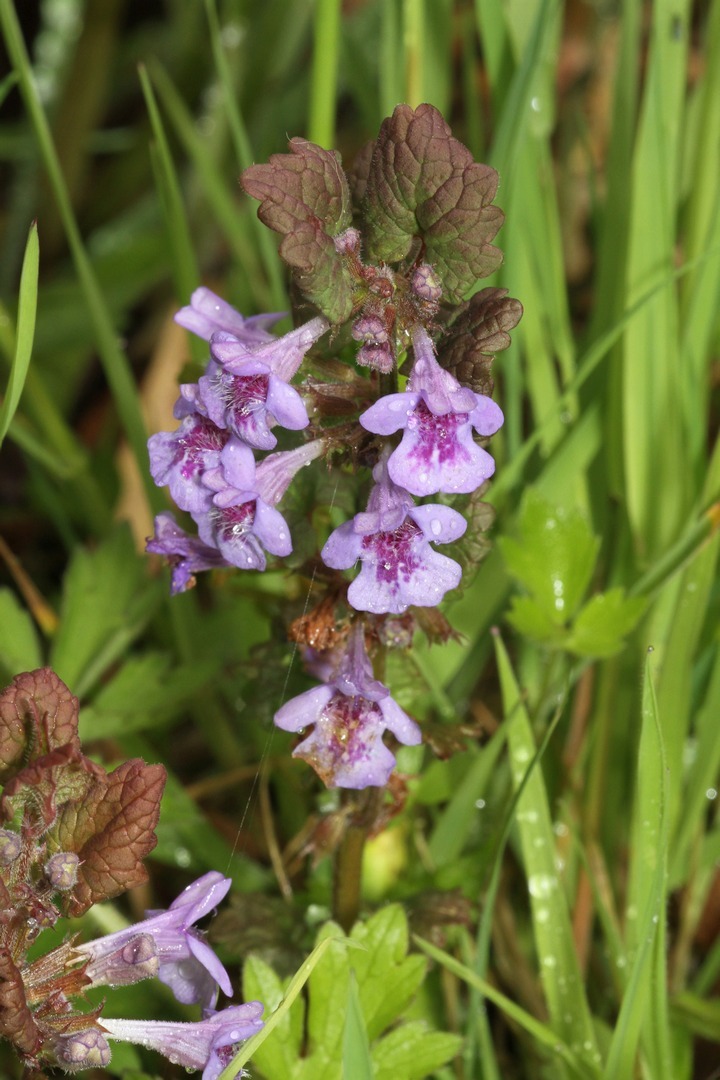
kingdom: Plantae
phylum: Tracheophyta
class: Magnoliopsida
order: Lamiales
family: Lamiaceae
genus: Glechoma
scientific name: Glechoma hederacea
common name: Ground ivy
